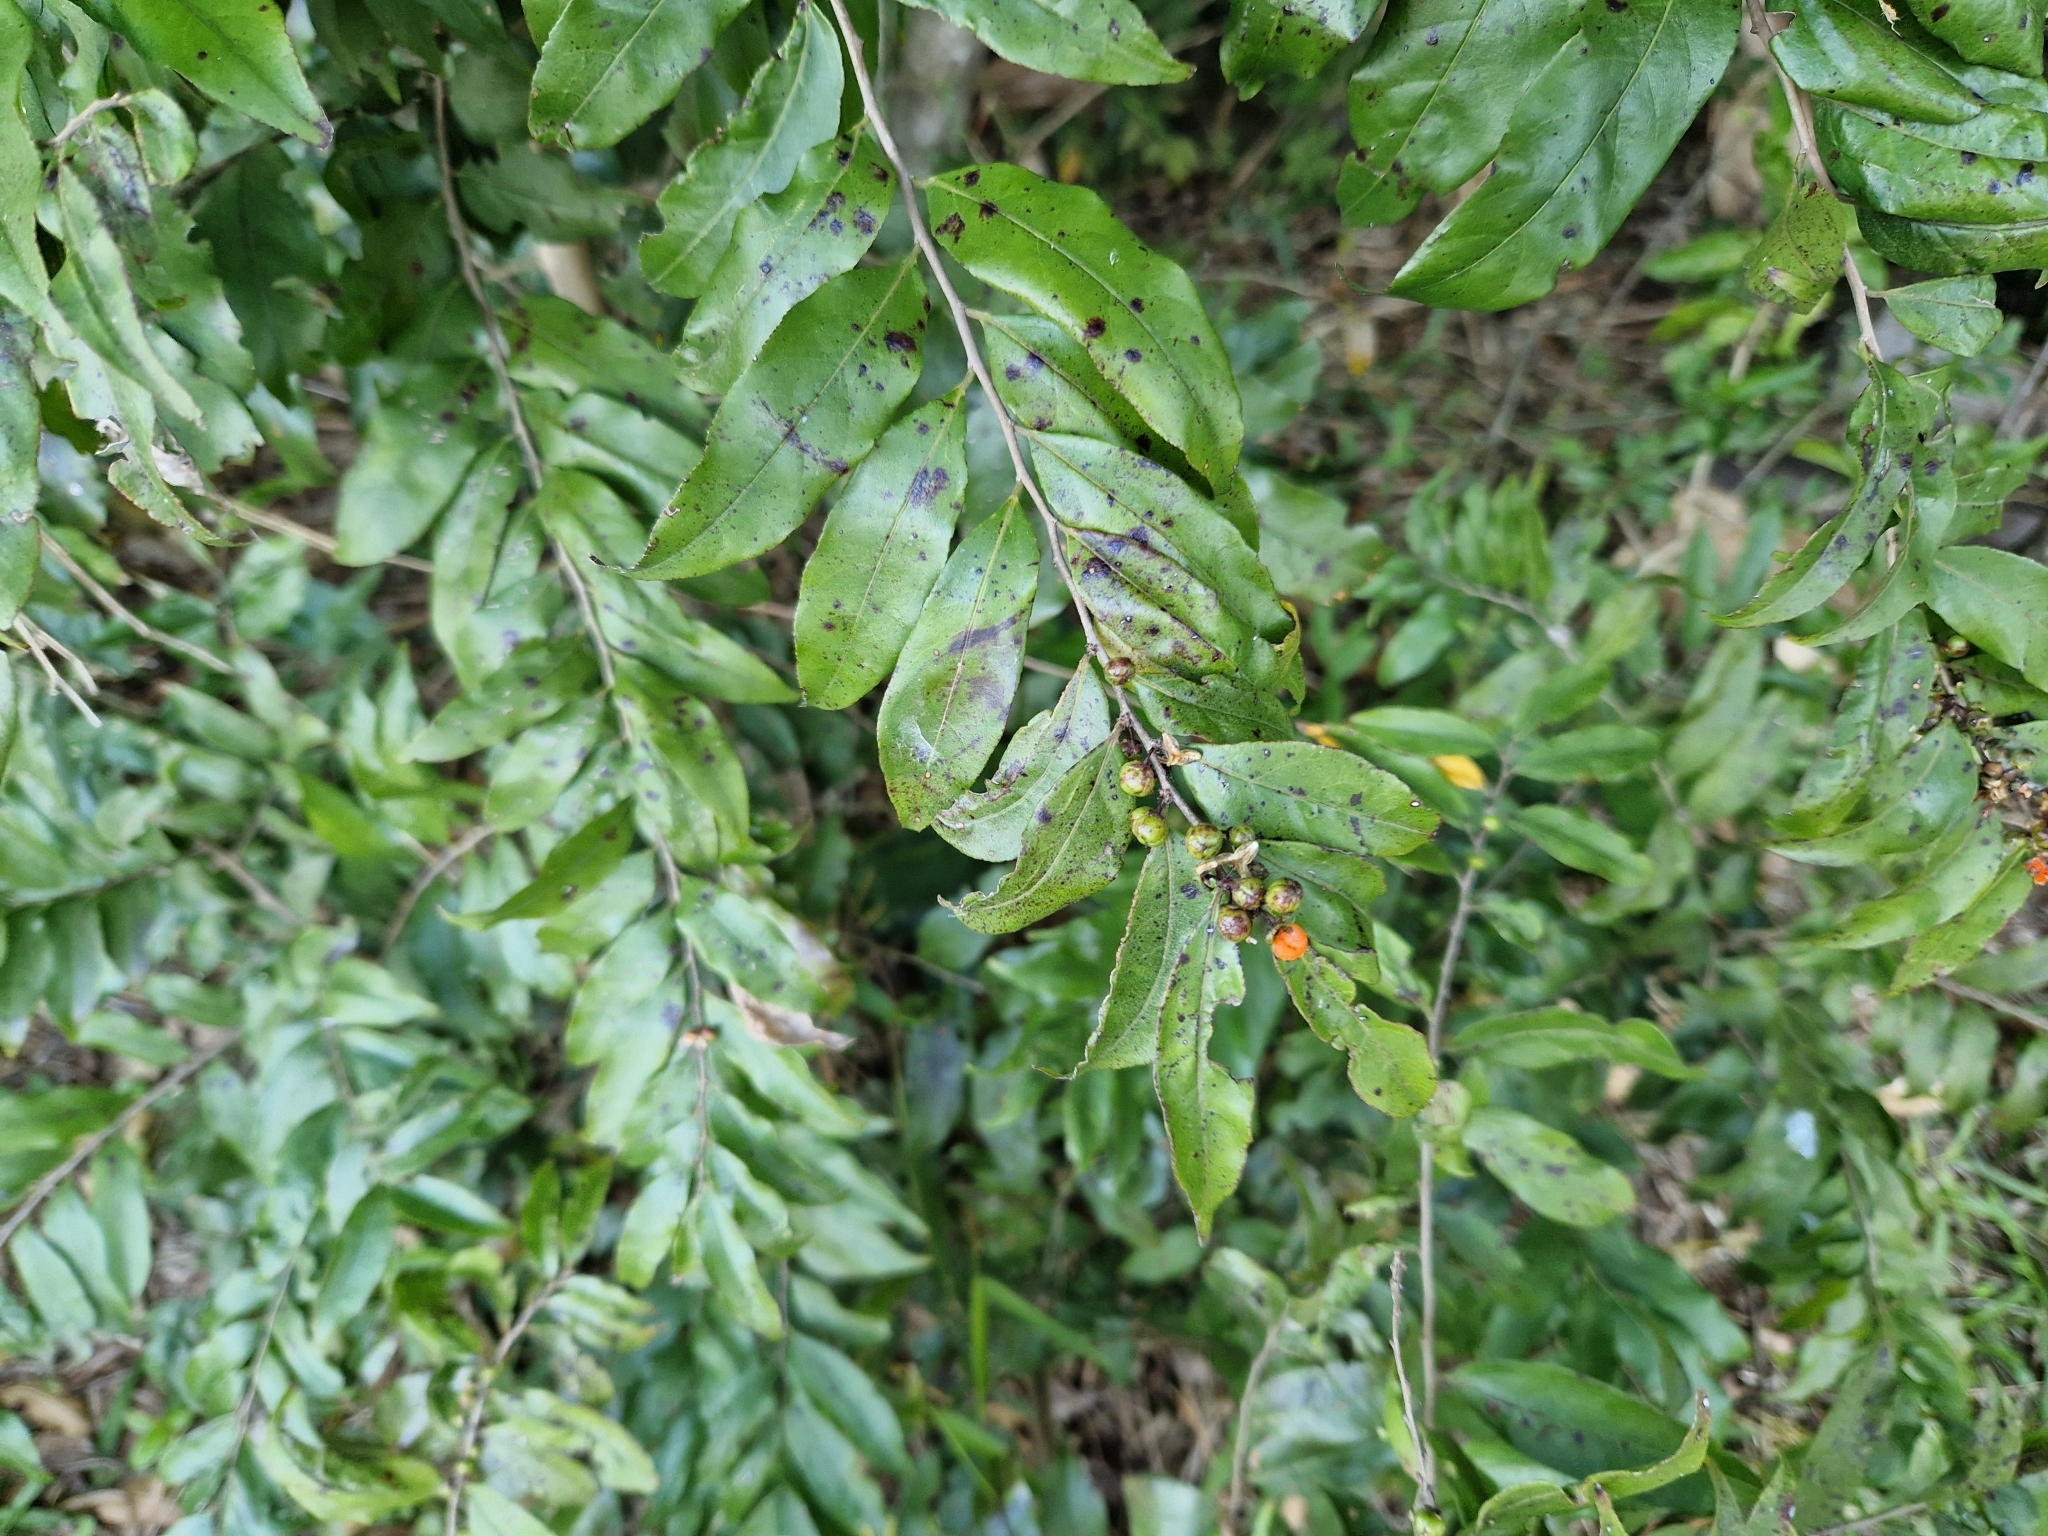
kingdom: Plantae
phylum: Tracheophyta
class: Magnoliopsida
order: Malpighiales
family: Salicaceae
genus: Casearia
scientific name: Casearia sylvestris
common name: Wild sage
